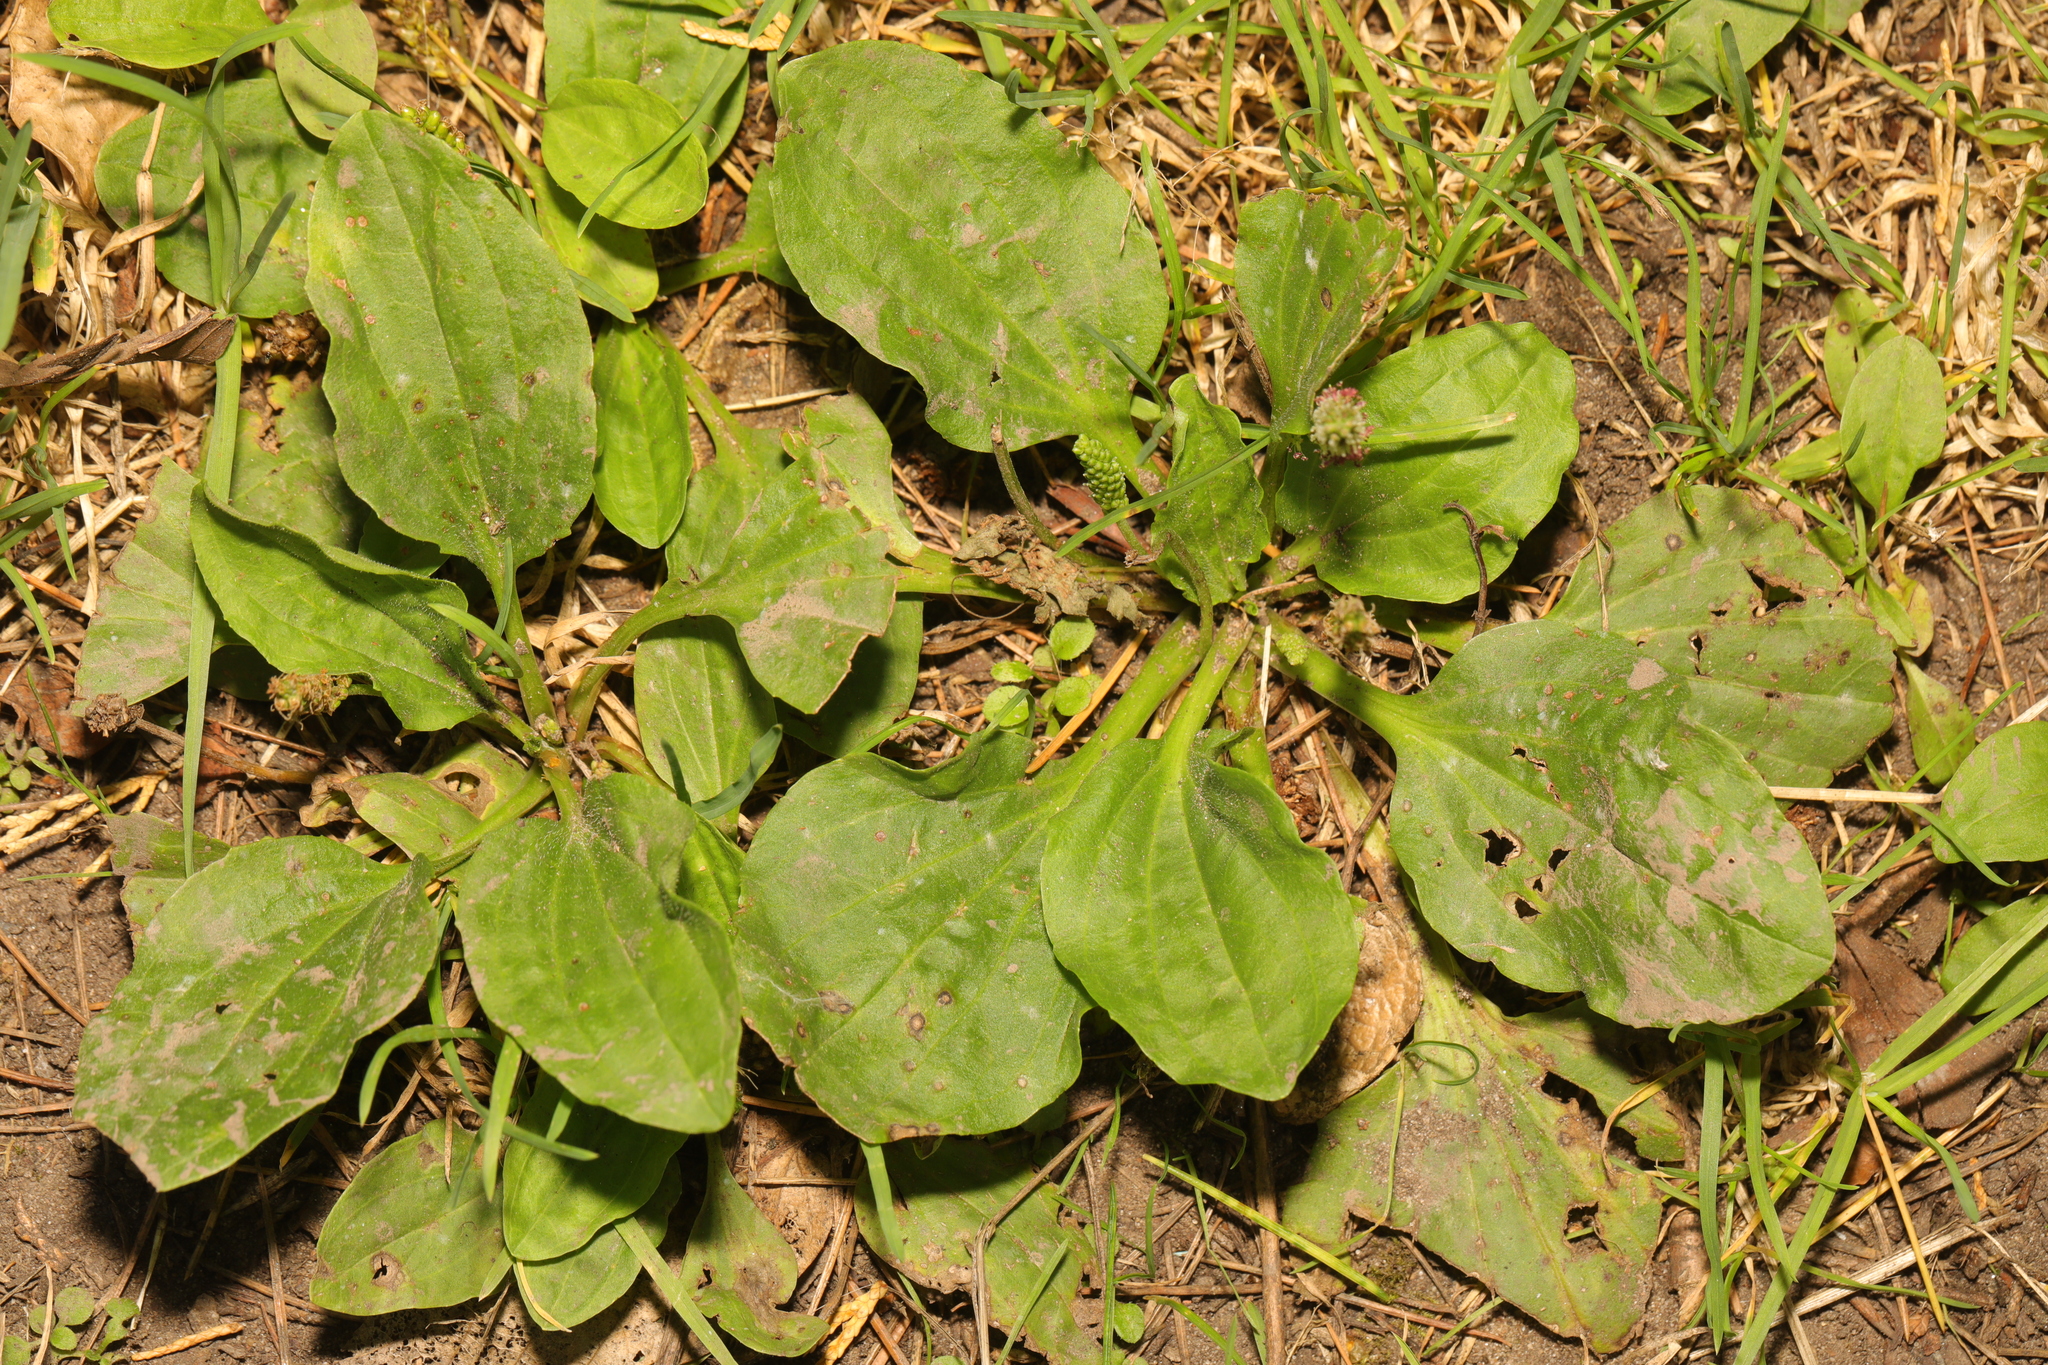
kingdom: Plantae
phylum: Tracheophyta
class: Magnoliopsida
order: Lamiales
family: Plantaginaceae
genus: Plantago
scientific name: Plantago major
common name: Common plantain
